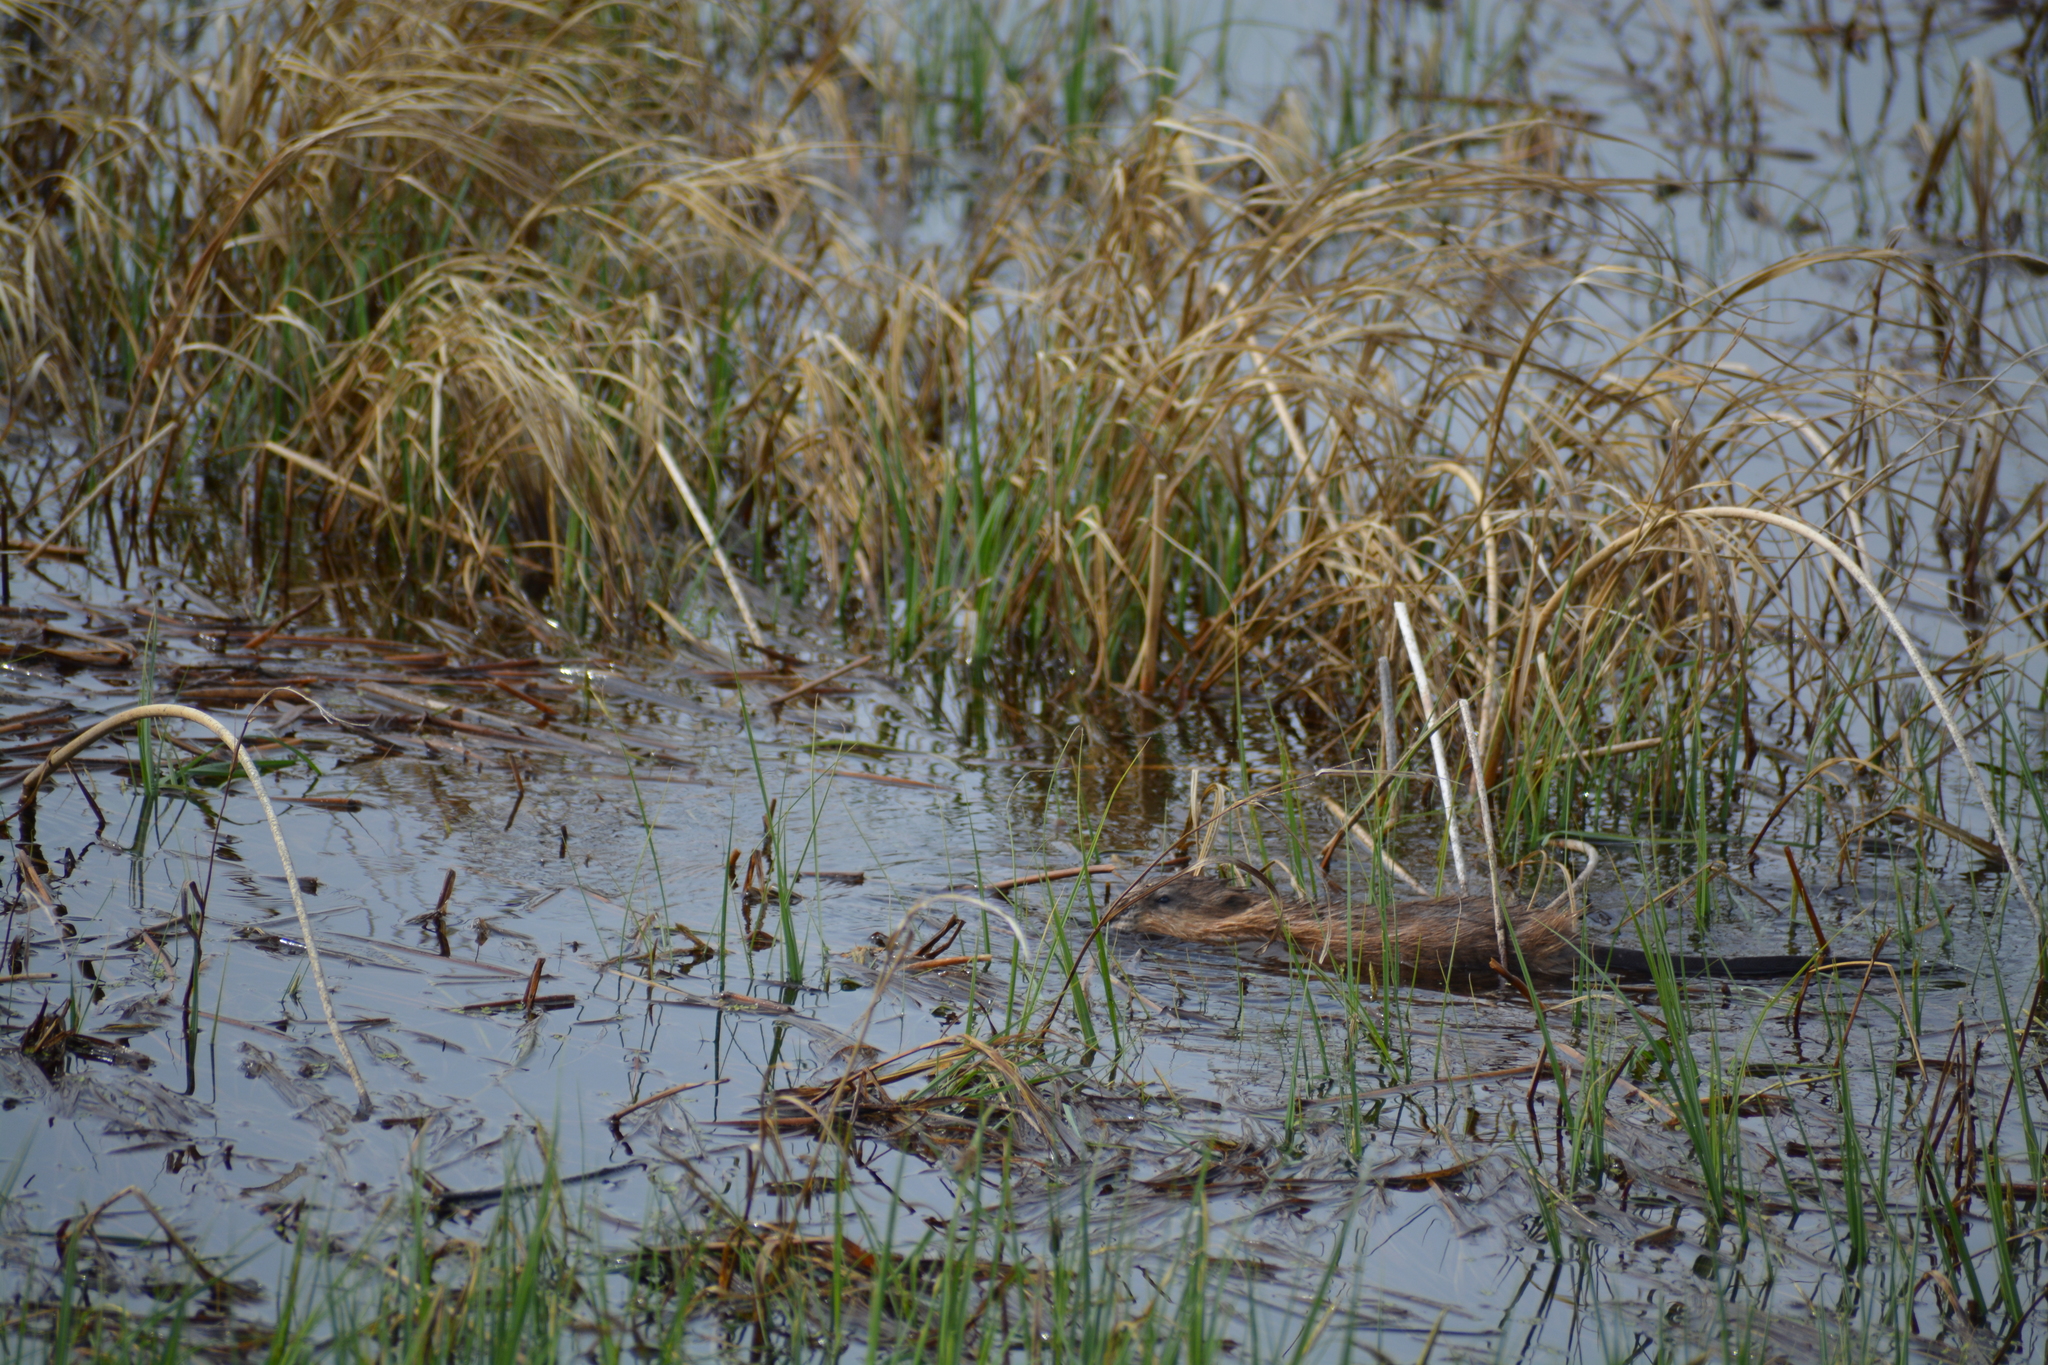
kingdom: Animalia
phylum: Chordata
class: Mammalia
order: Rodentia
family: Cricetidae
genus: Ondatra
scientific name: Ondatra zibethicus
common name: Muskrat
